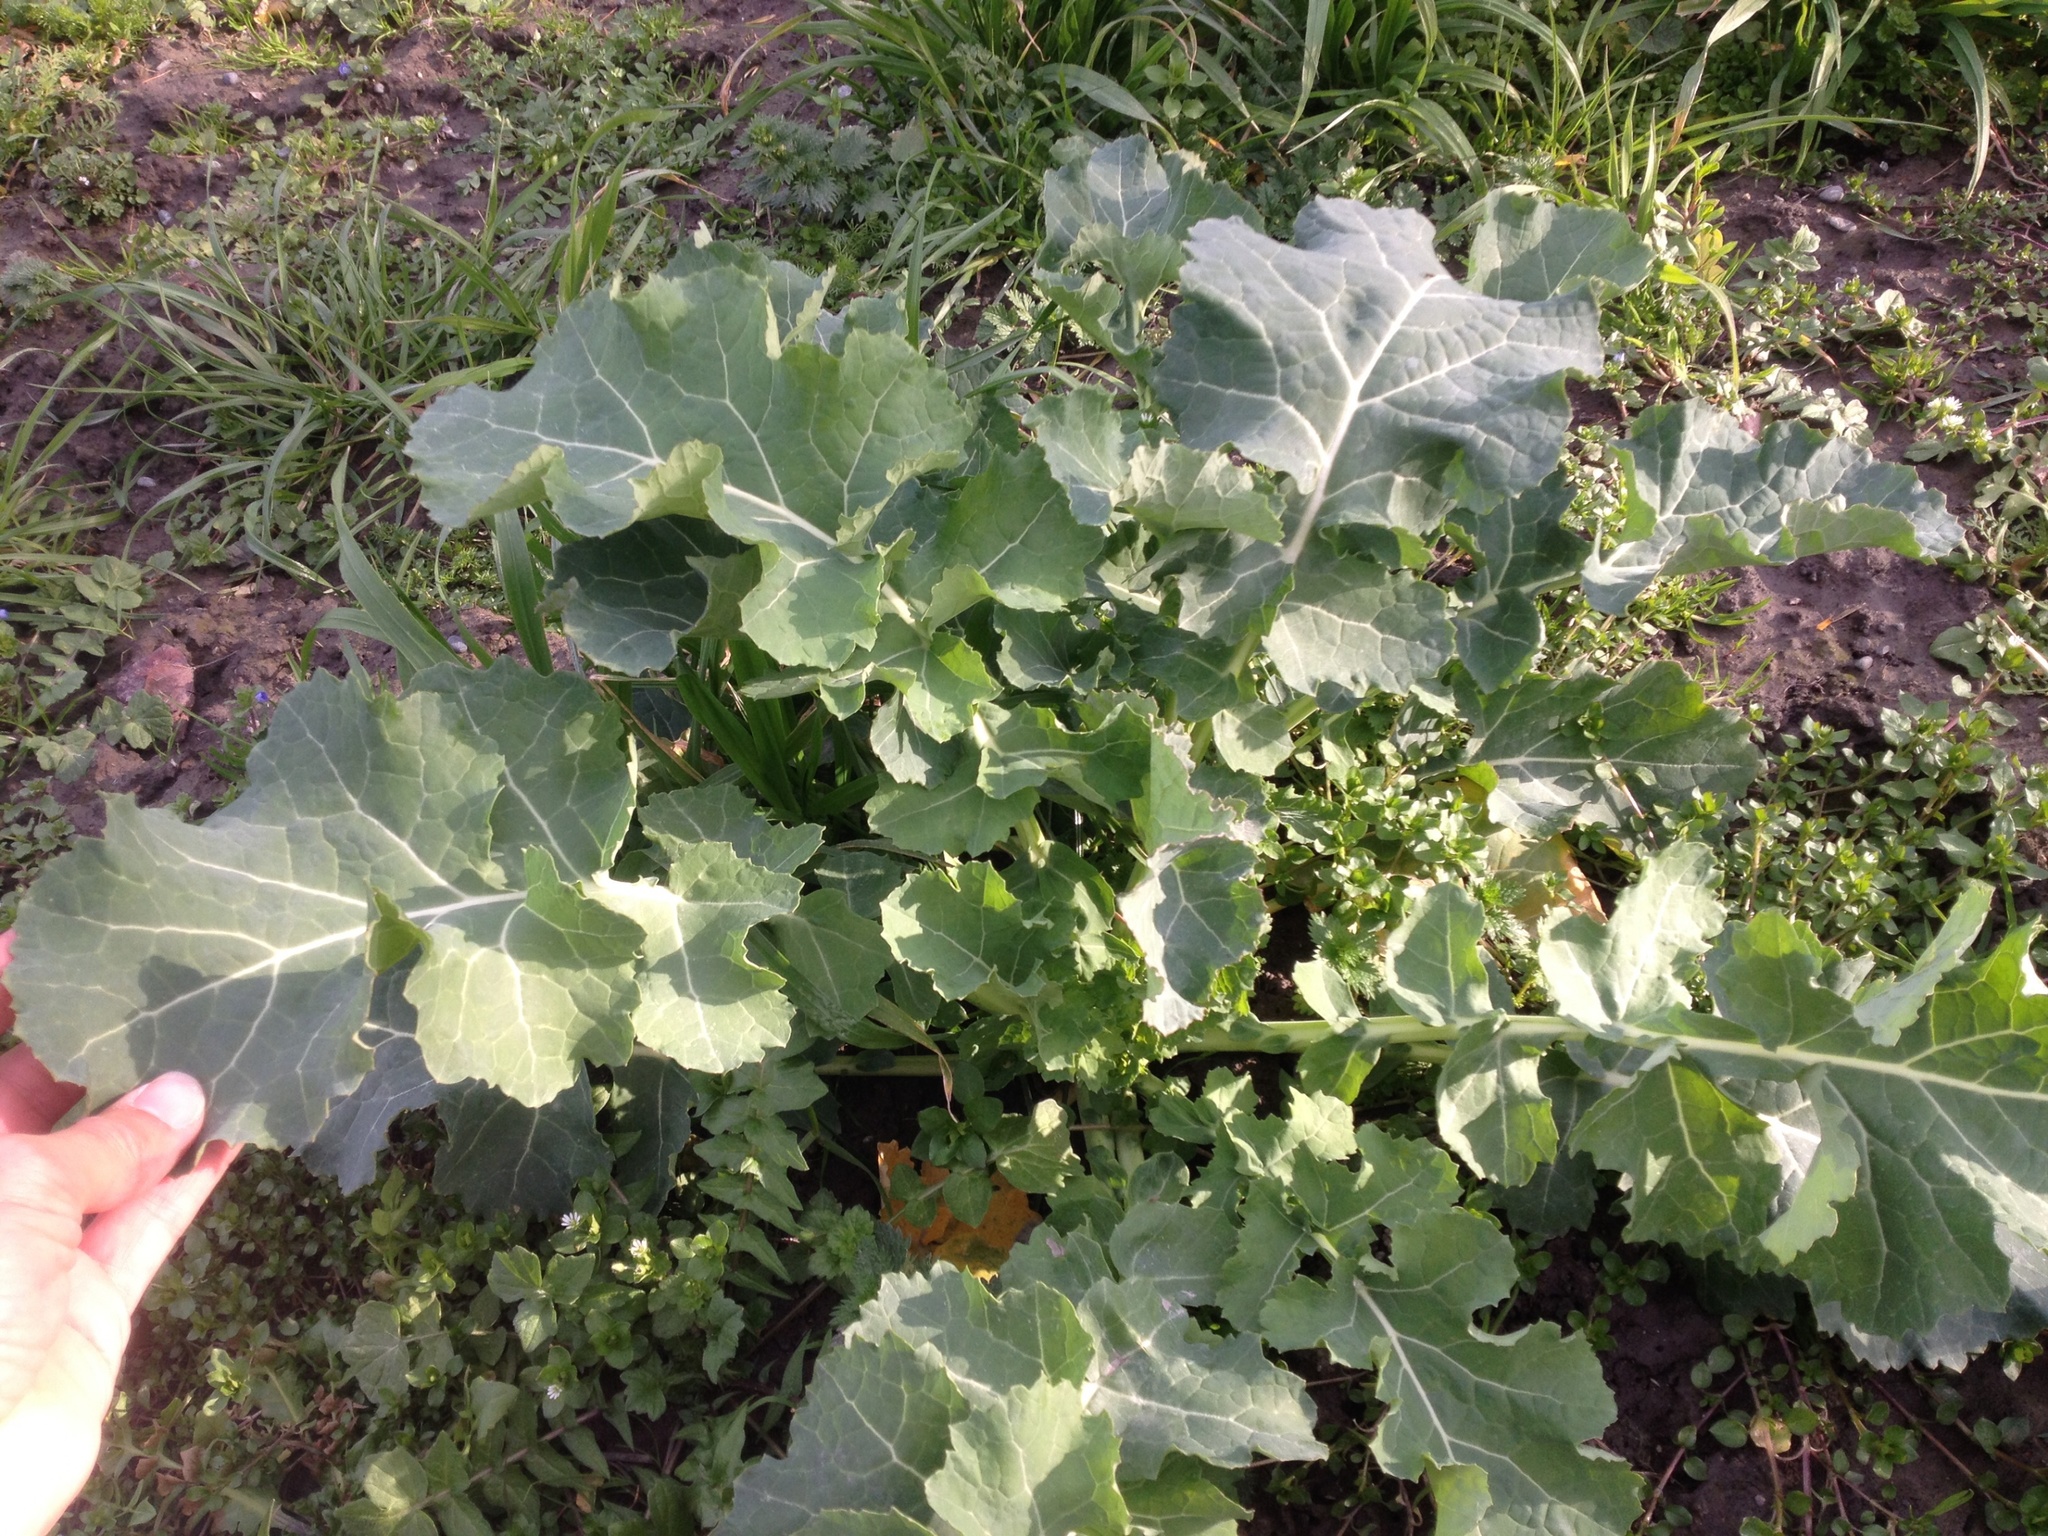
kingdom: Plantae
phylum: Tracheophyta
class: Magnoliopsida
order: Brassicales
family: Brassicaceae
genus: Brassica
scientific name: Brassica napus
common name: Rape
